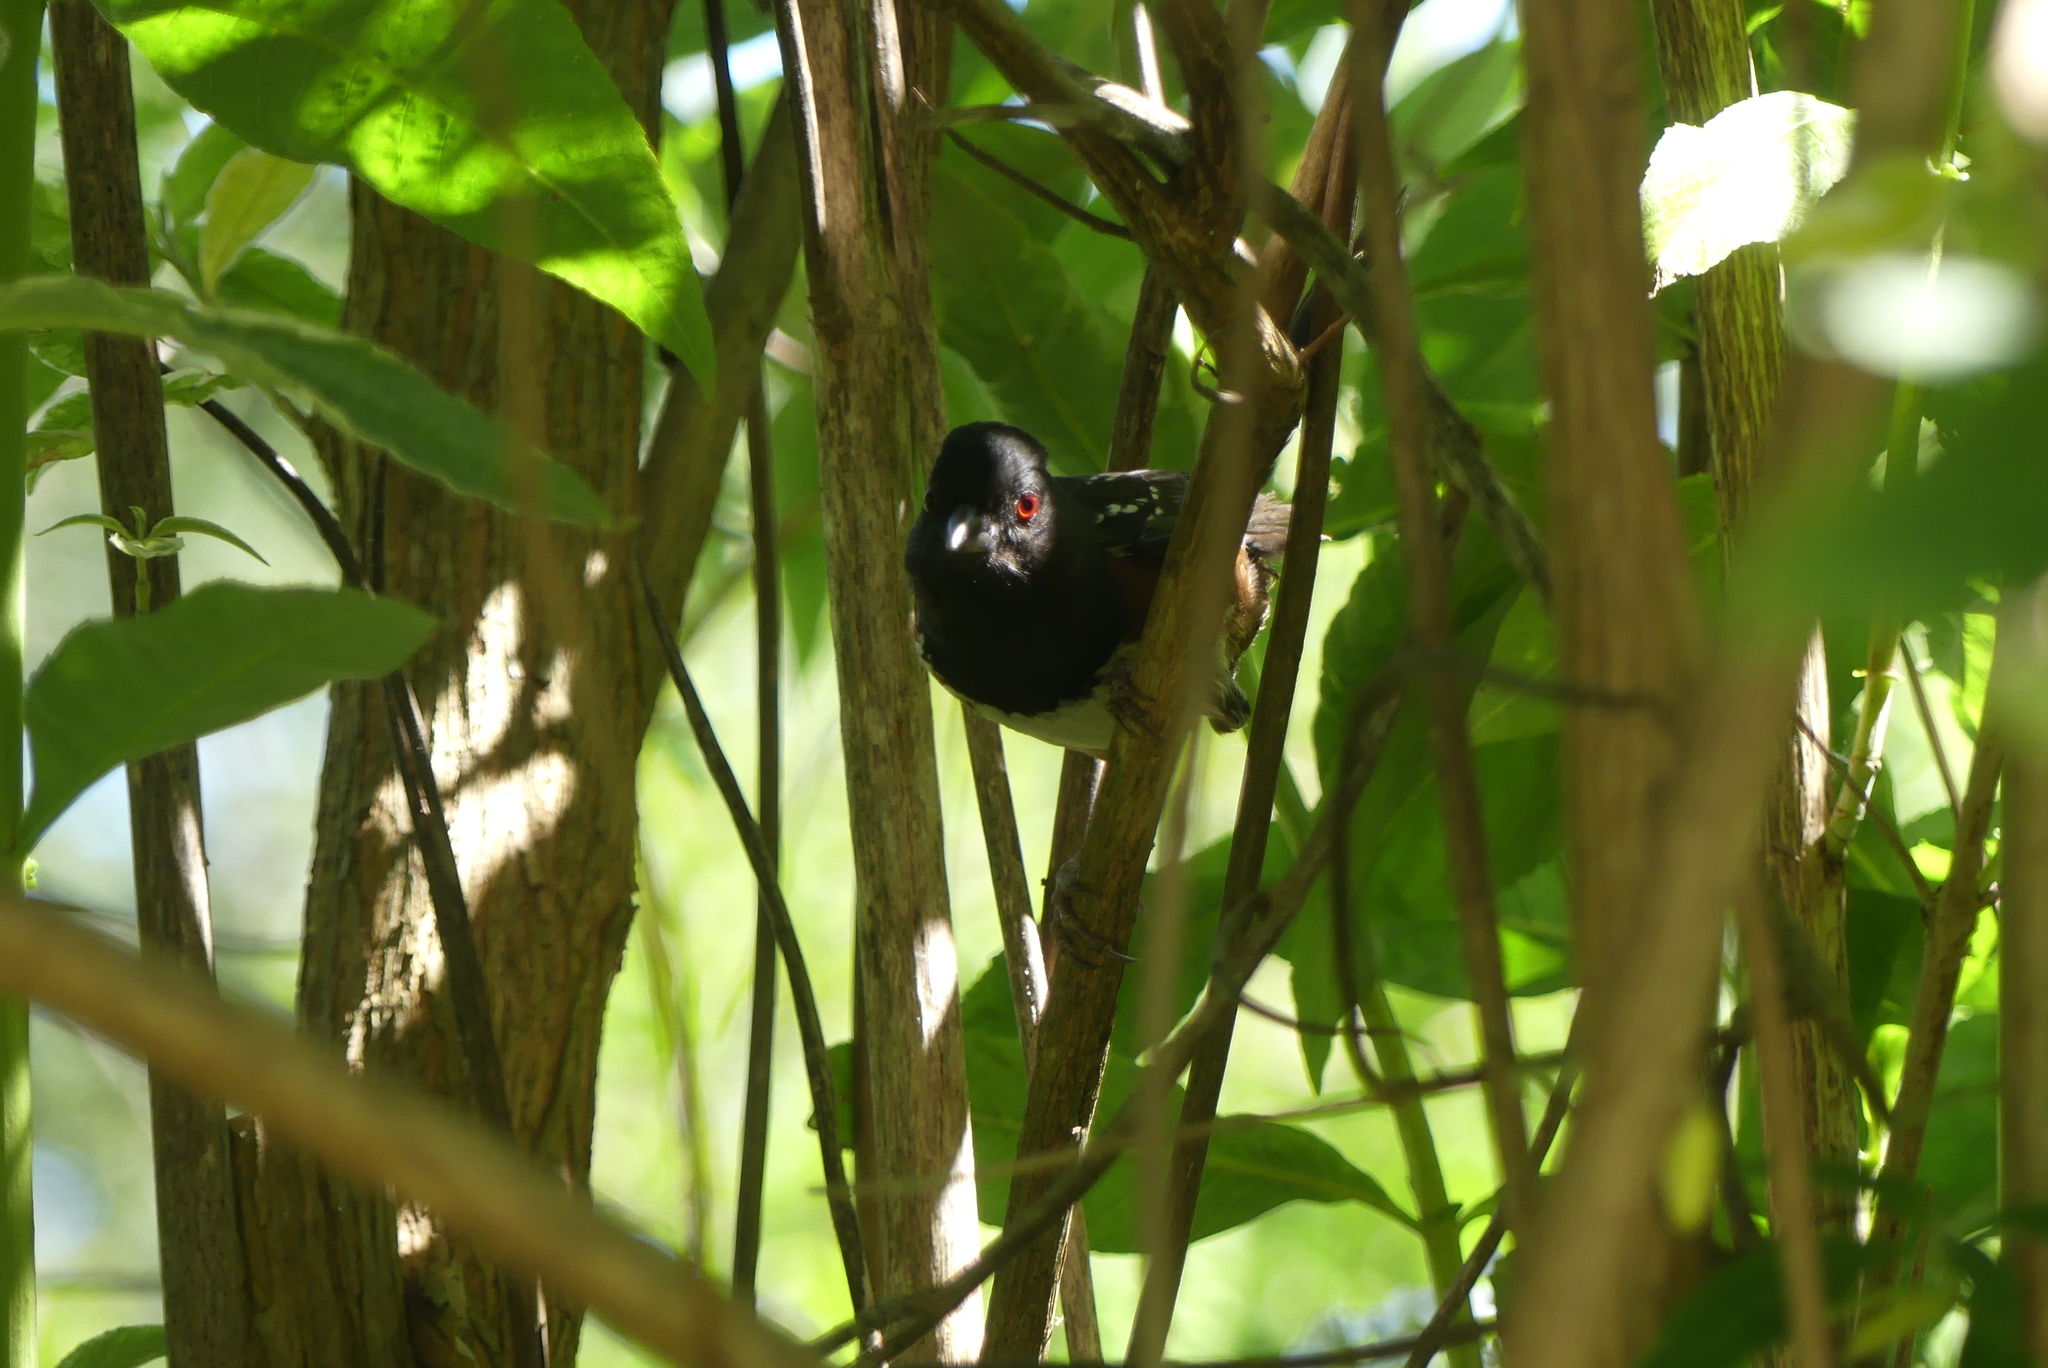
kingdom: Animalia
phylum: Chordata
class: Aves
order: Passeriformes
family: Passerellidae
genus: Pipilo
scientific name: Pipilo maculatus
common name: Spotted towhee
